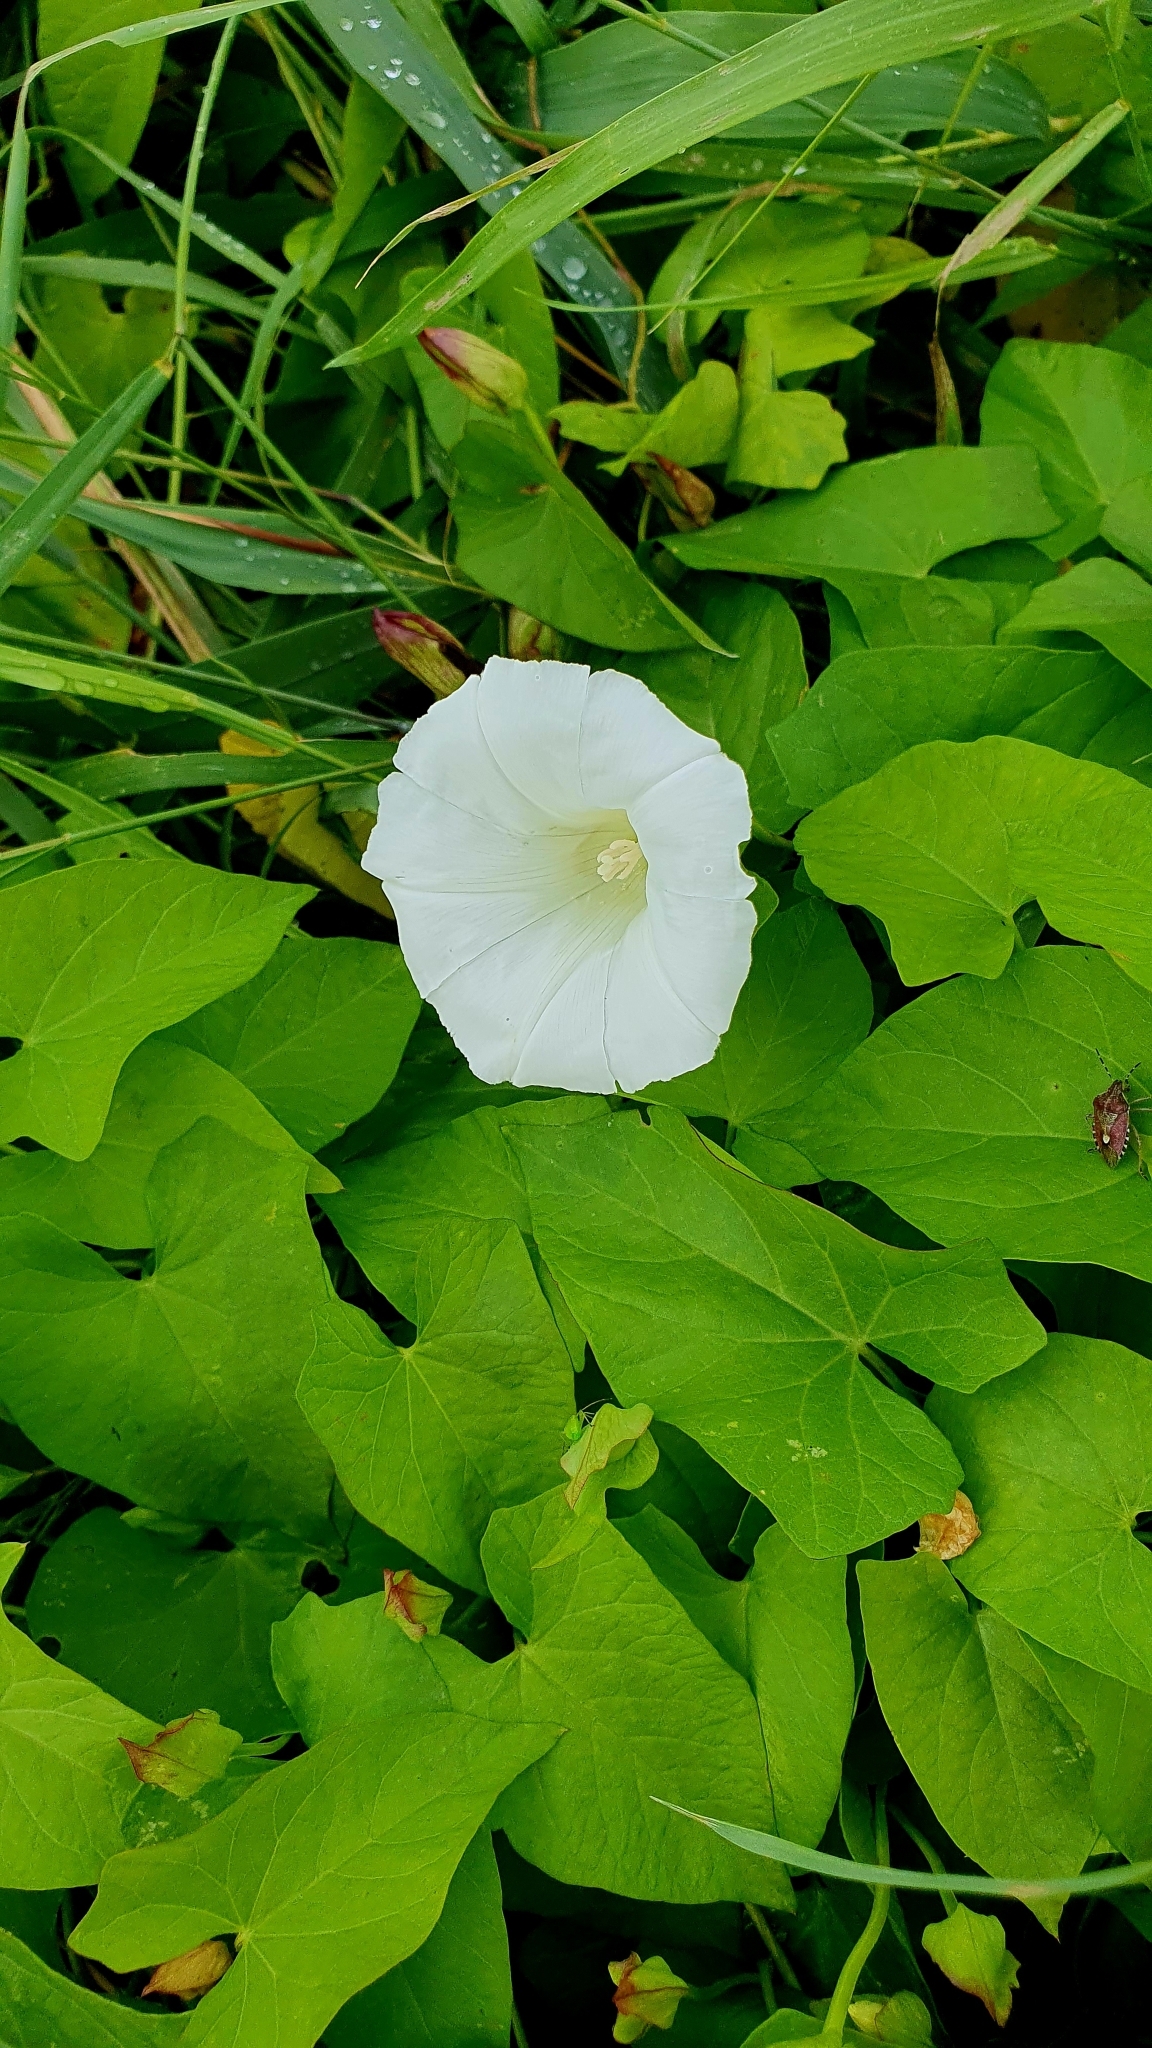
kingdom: Plantae
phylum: Tracheophyta
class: Magnoliopsida
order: Solanales
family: Convolvulaceae
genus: Calystegia
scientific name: Calystegia sepium
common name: Hedge bindweed
